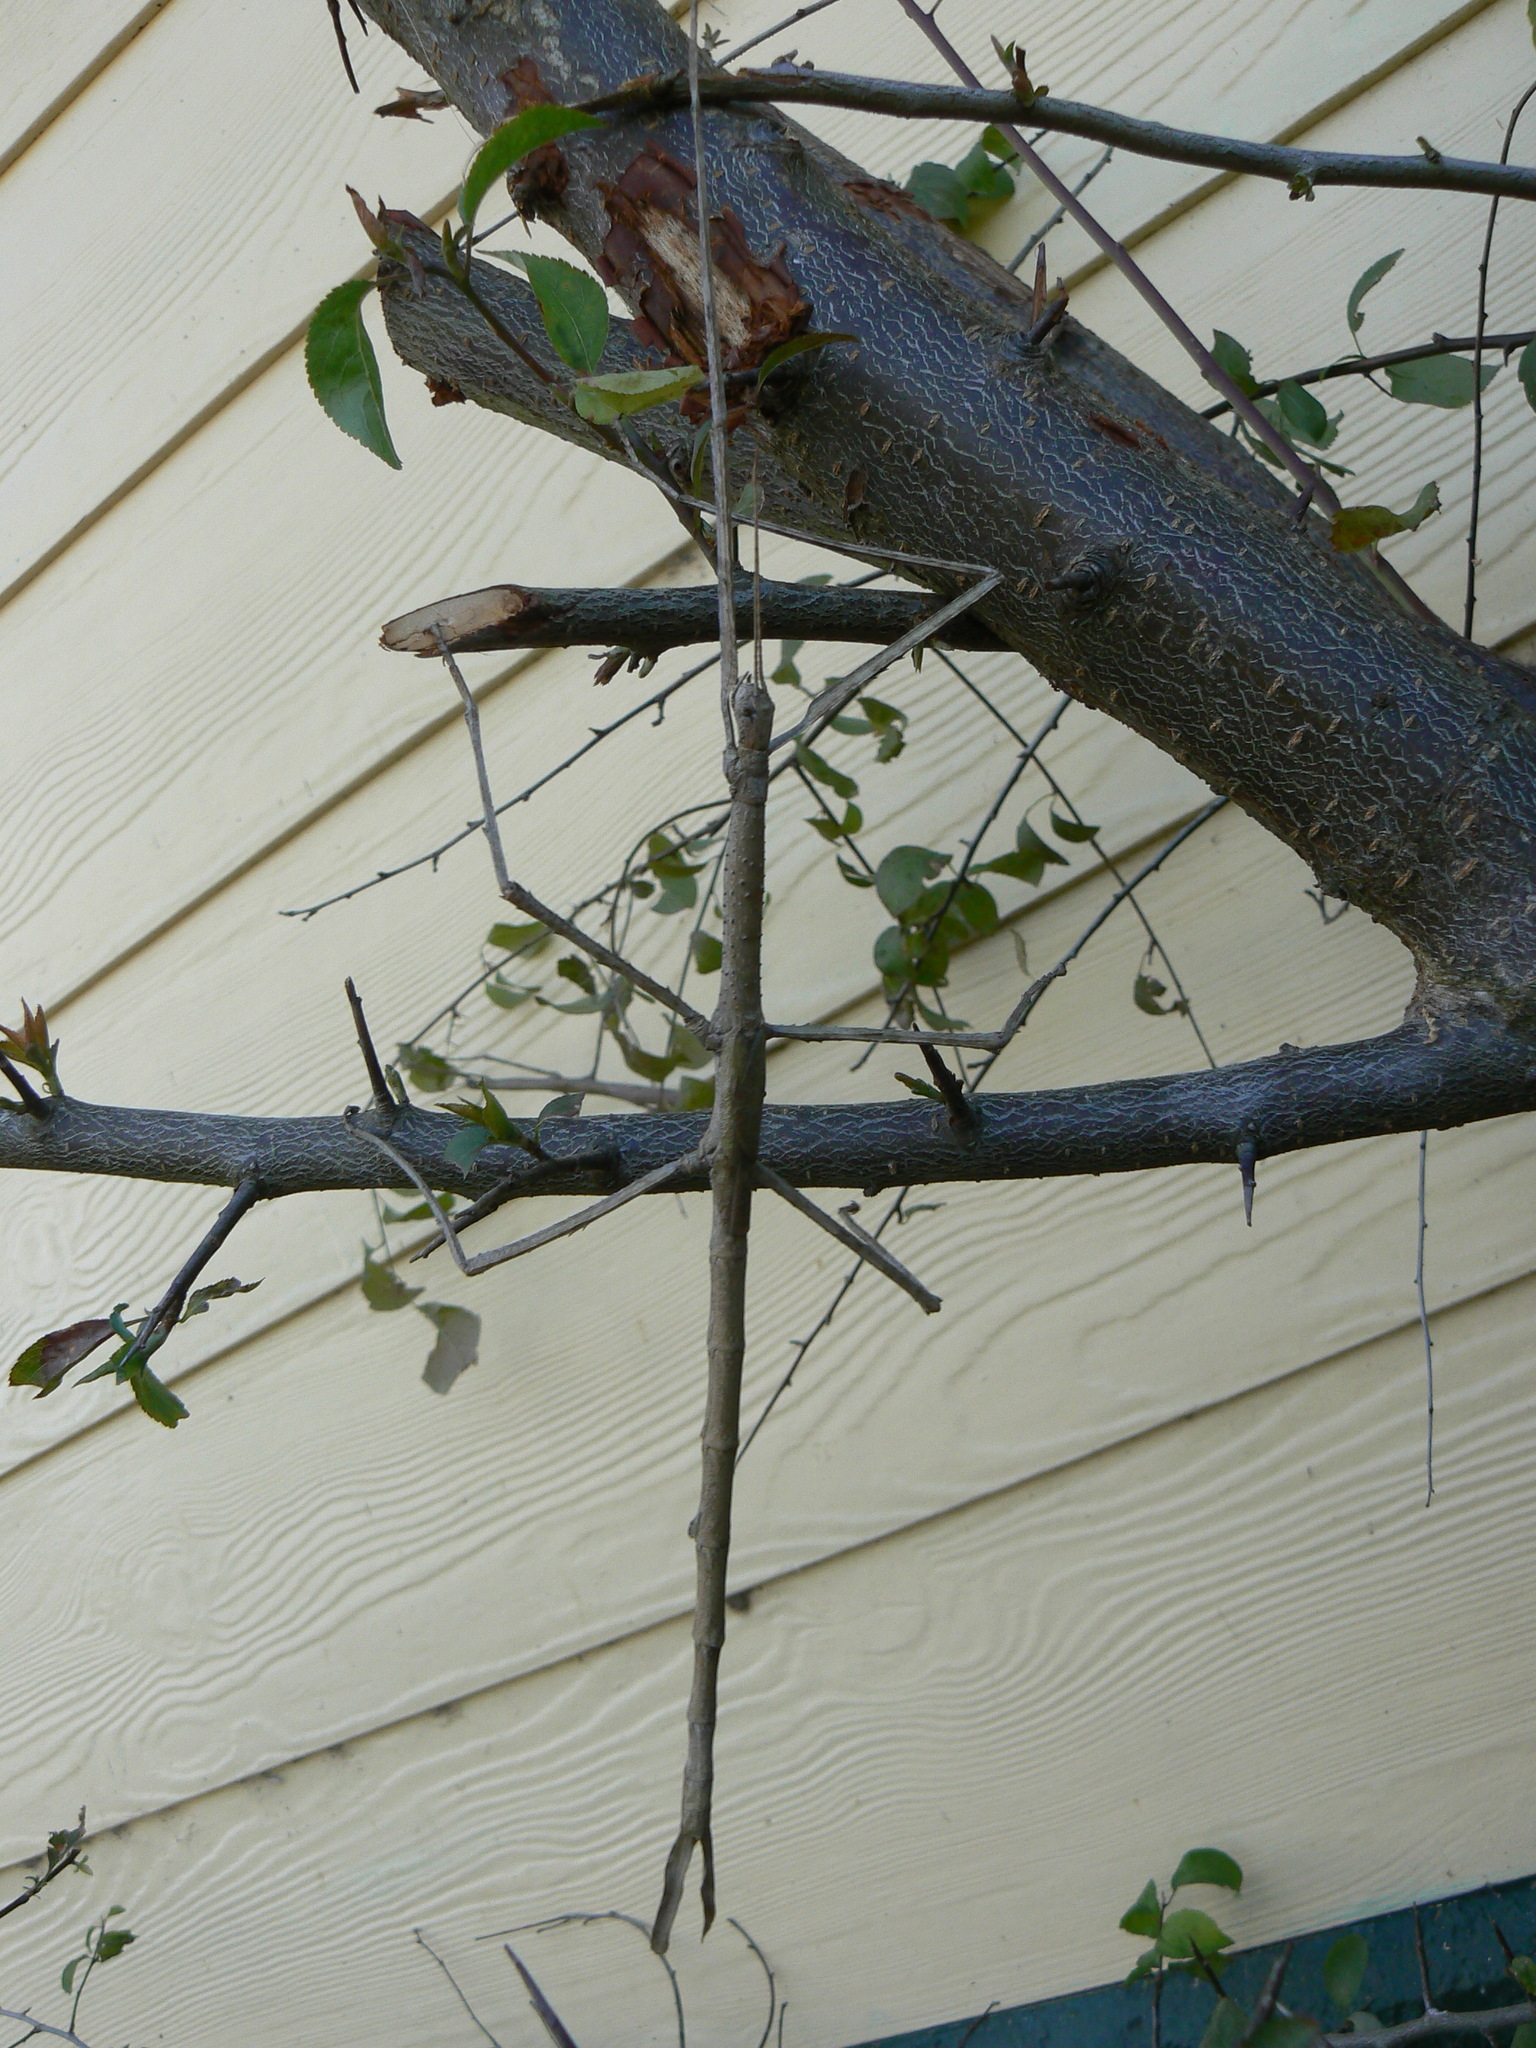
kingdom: Animalia
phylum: Arthropoda
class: Insecta
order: Phasmida
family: Phasmatidae
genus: Ctenomorpha
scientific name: Ctenomorpha marginipennis
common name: Margined-winged stick-insect
